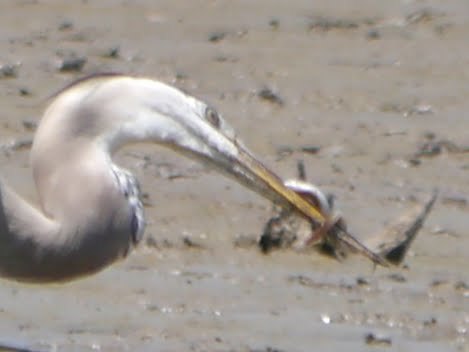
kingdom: Animalia
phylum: Chordata
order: Anguilliformes
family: Anguillidae
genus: Anguilla
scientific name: Anguilla rostrata
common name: American eel
